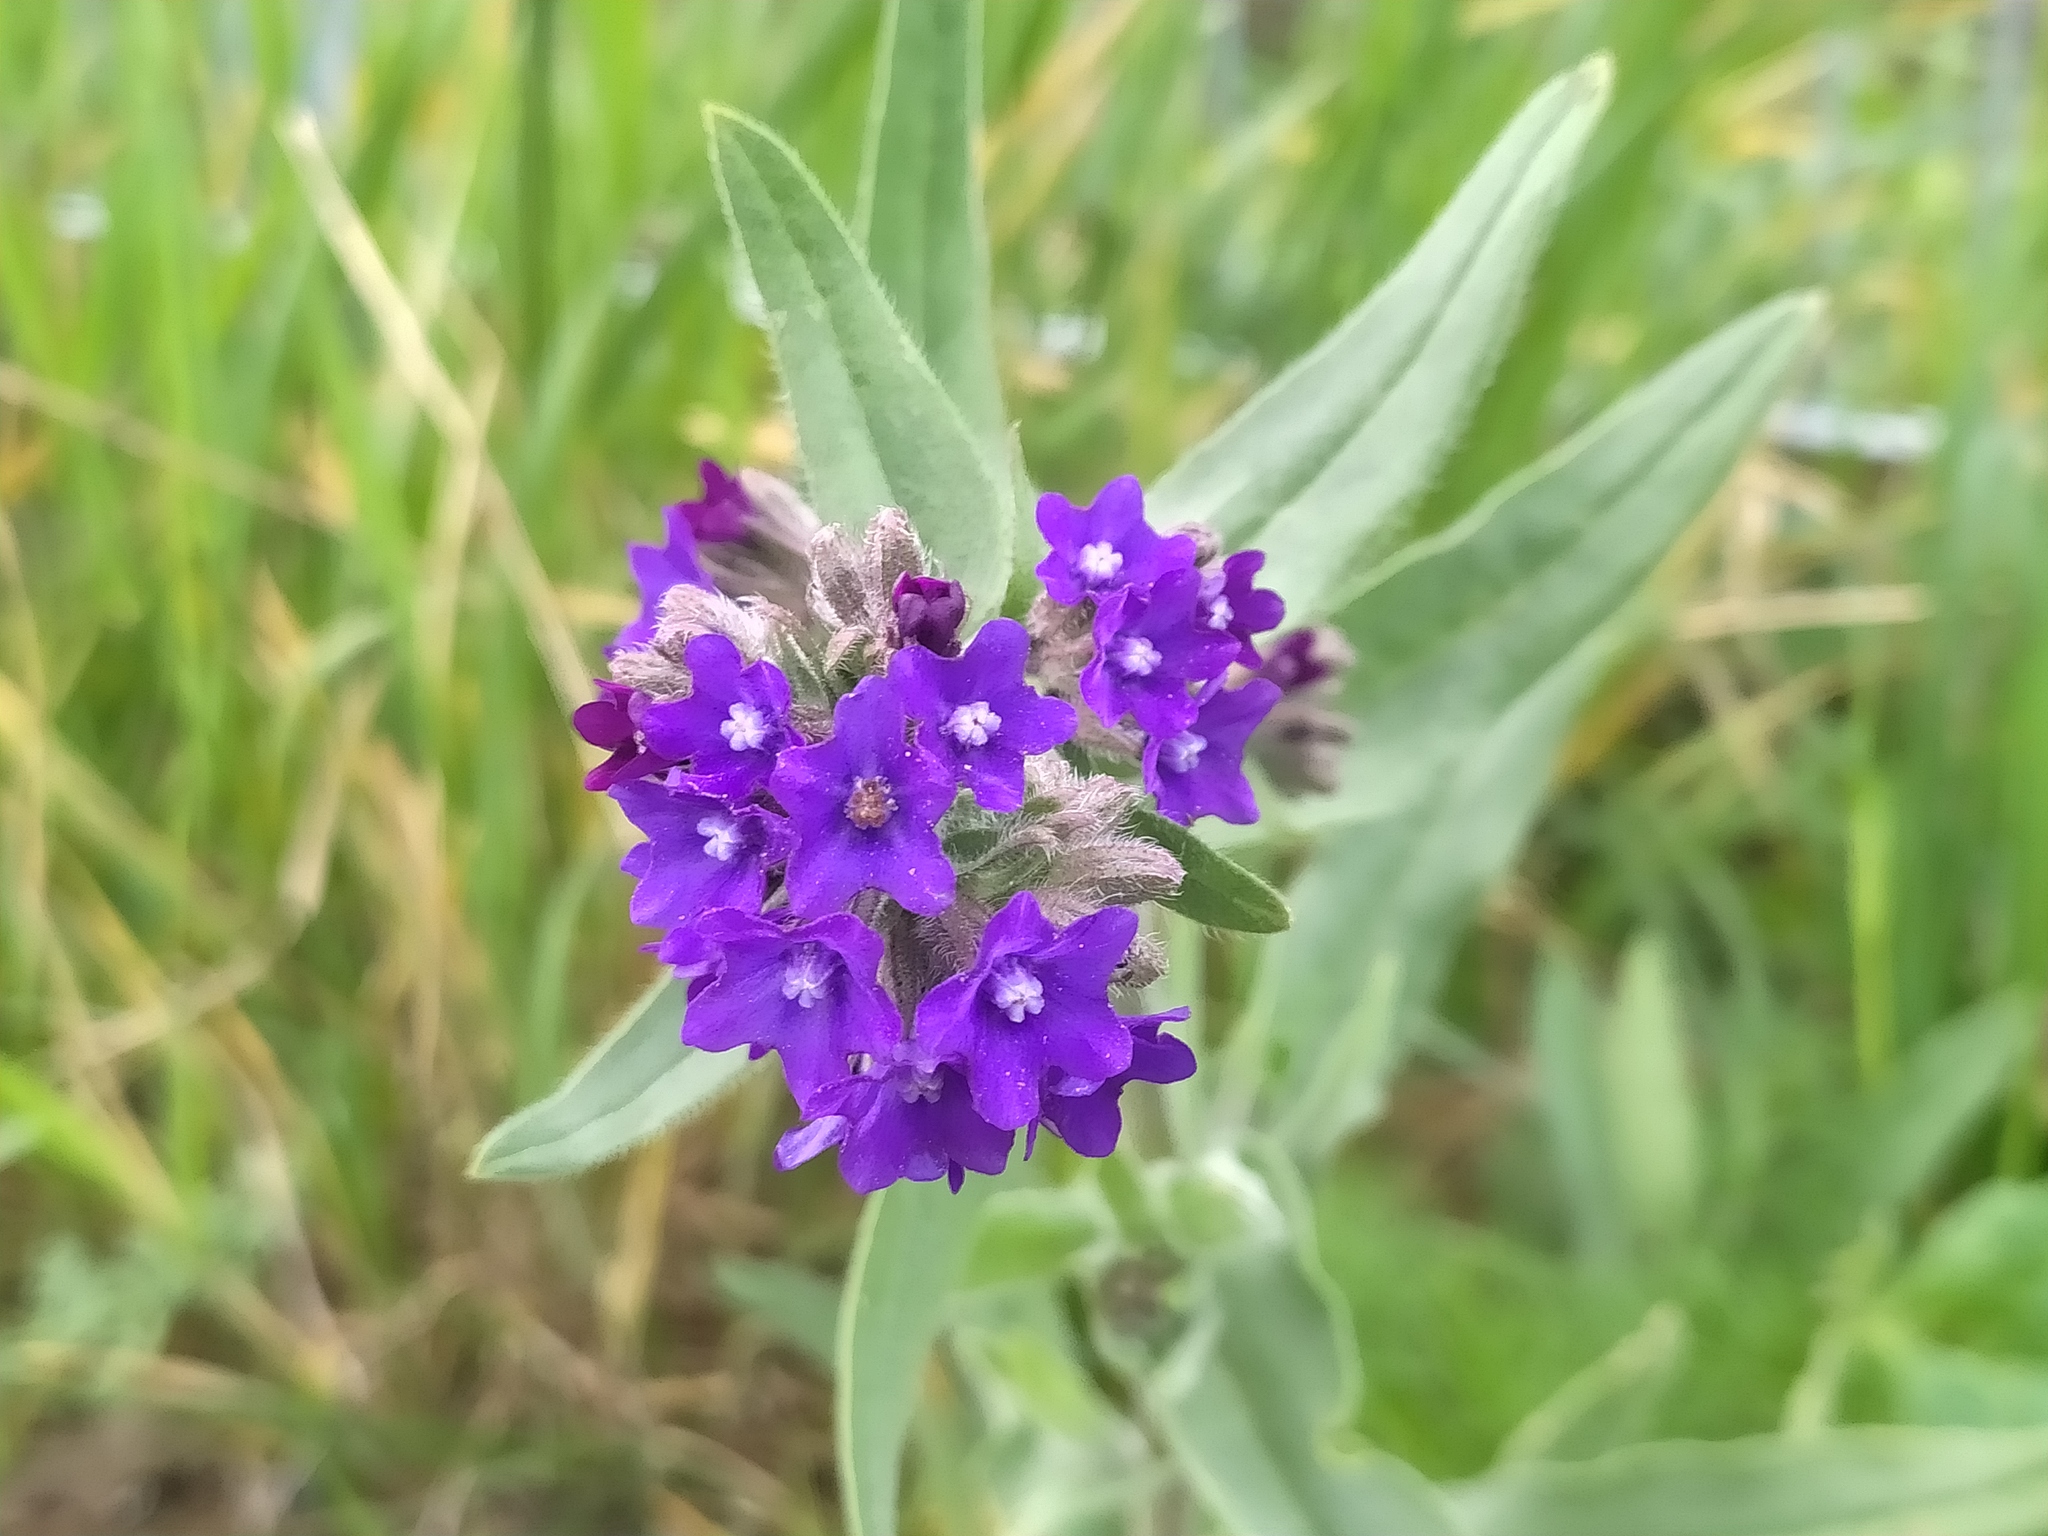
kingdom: Plantae
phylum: Tracheophyta
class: Magnoliopsida
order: Boraginales
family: Boraginaceae
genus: Anchusa
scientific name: Anchusa officinalis
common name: Alkanet
